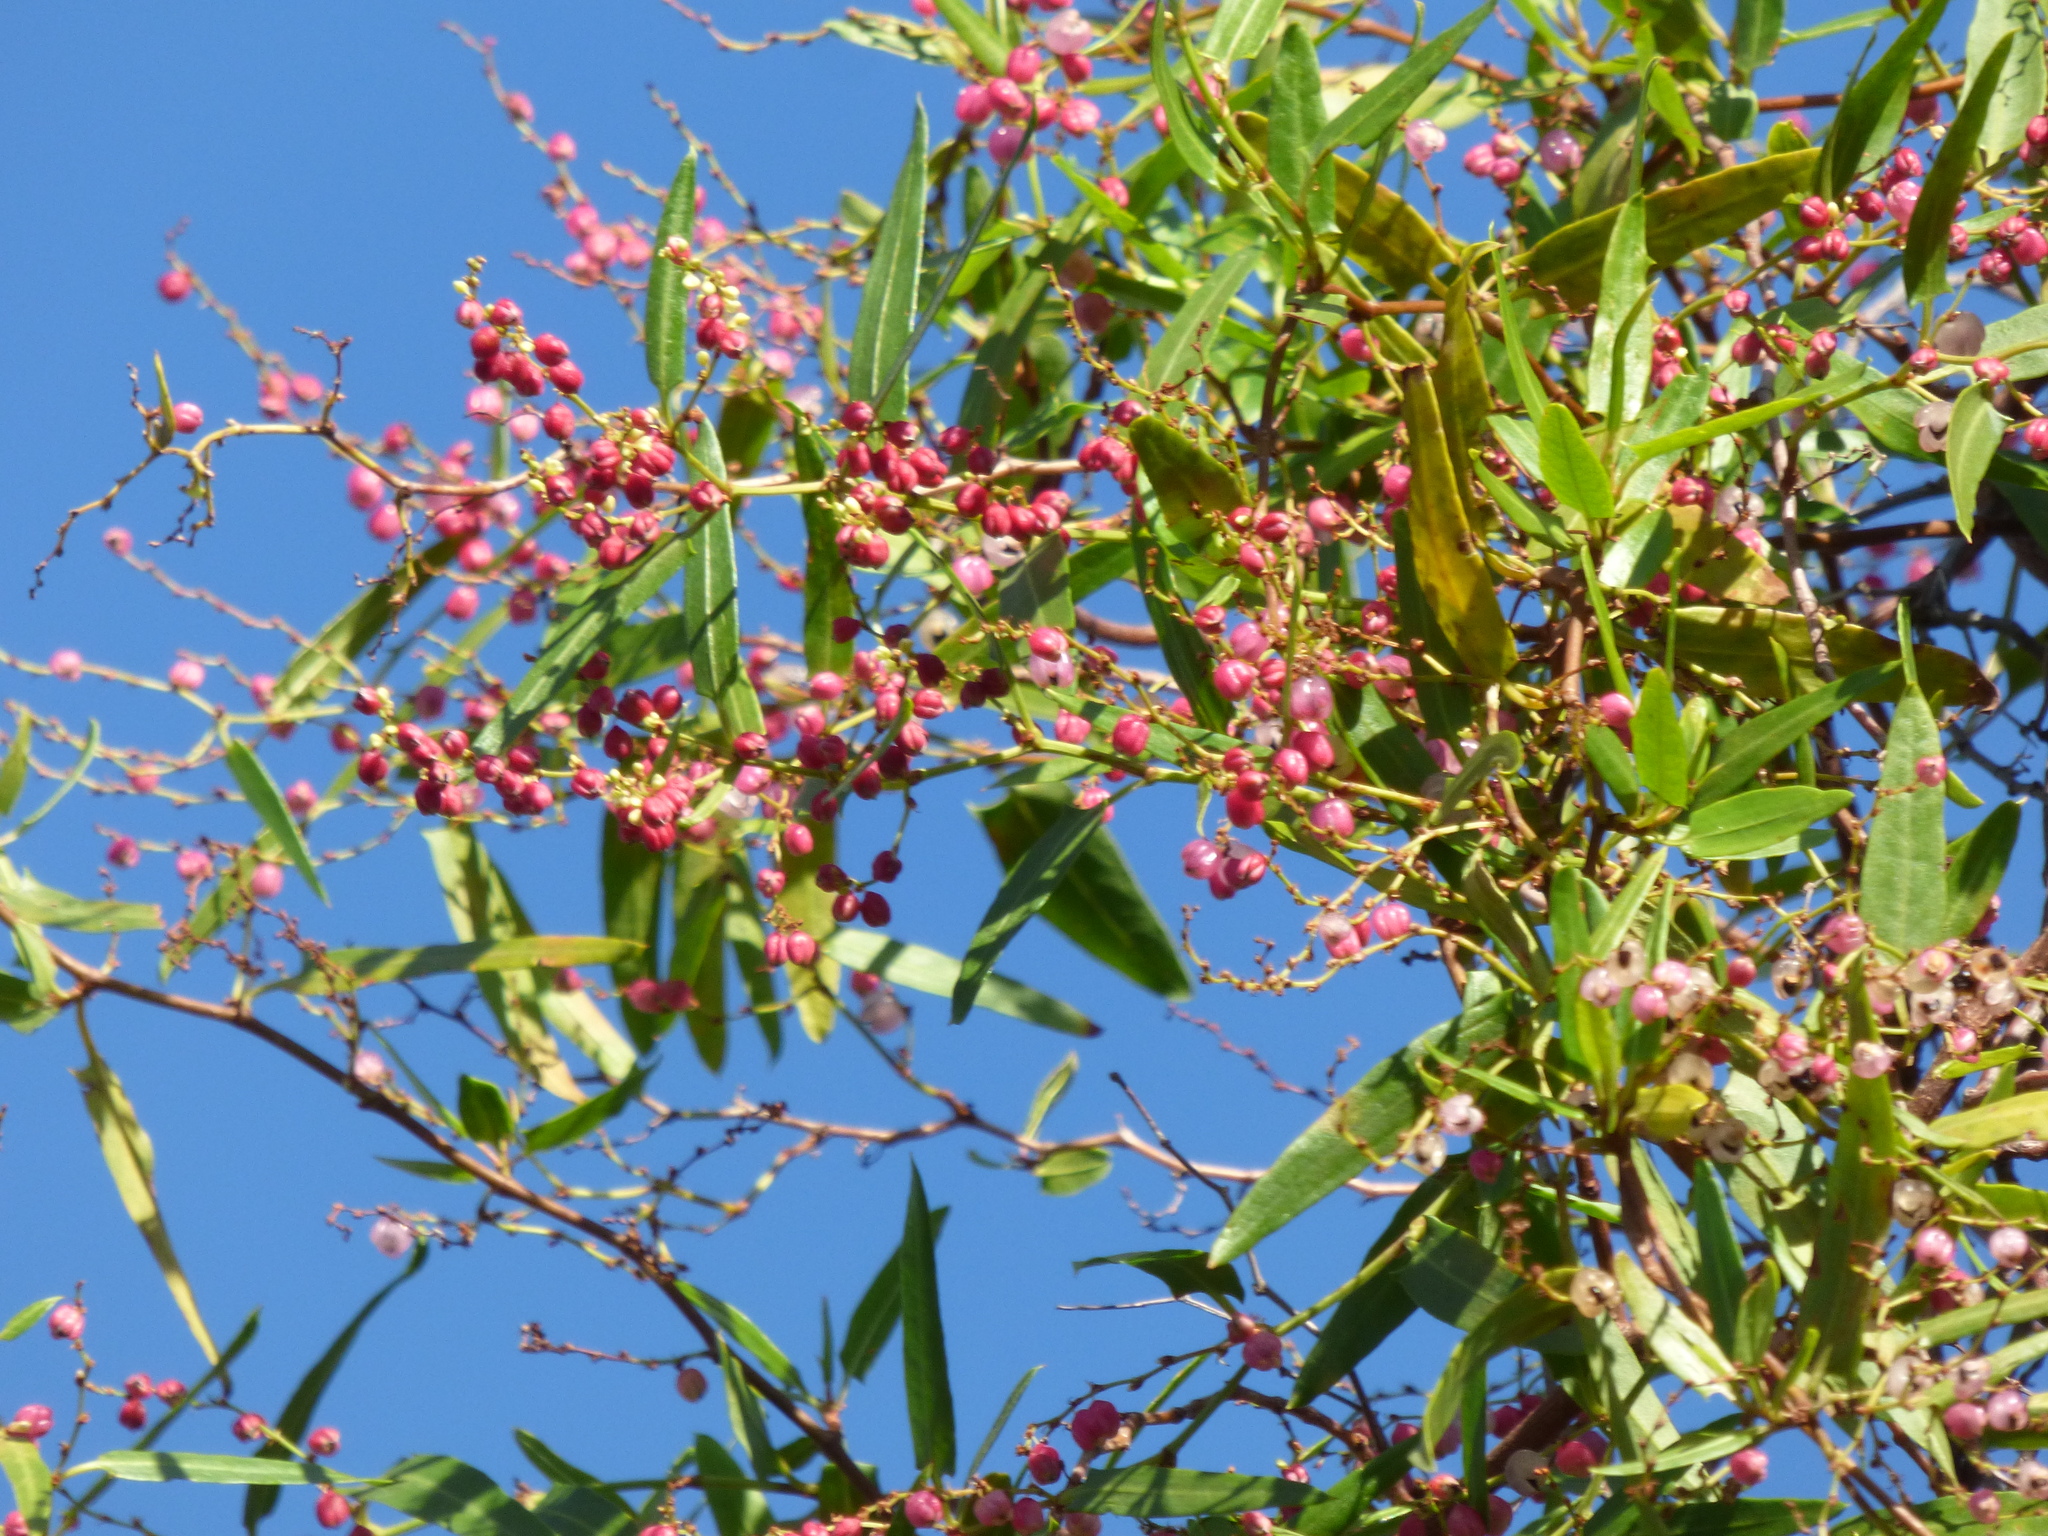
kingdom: Plantae
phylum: Tracheophyta
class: Magnoliopsida
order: Caryophyllales
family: Polygonaceae
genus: Muehlenbeckia
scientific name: Muehlenbeckia sagittifolia
